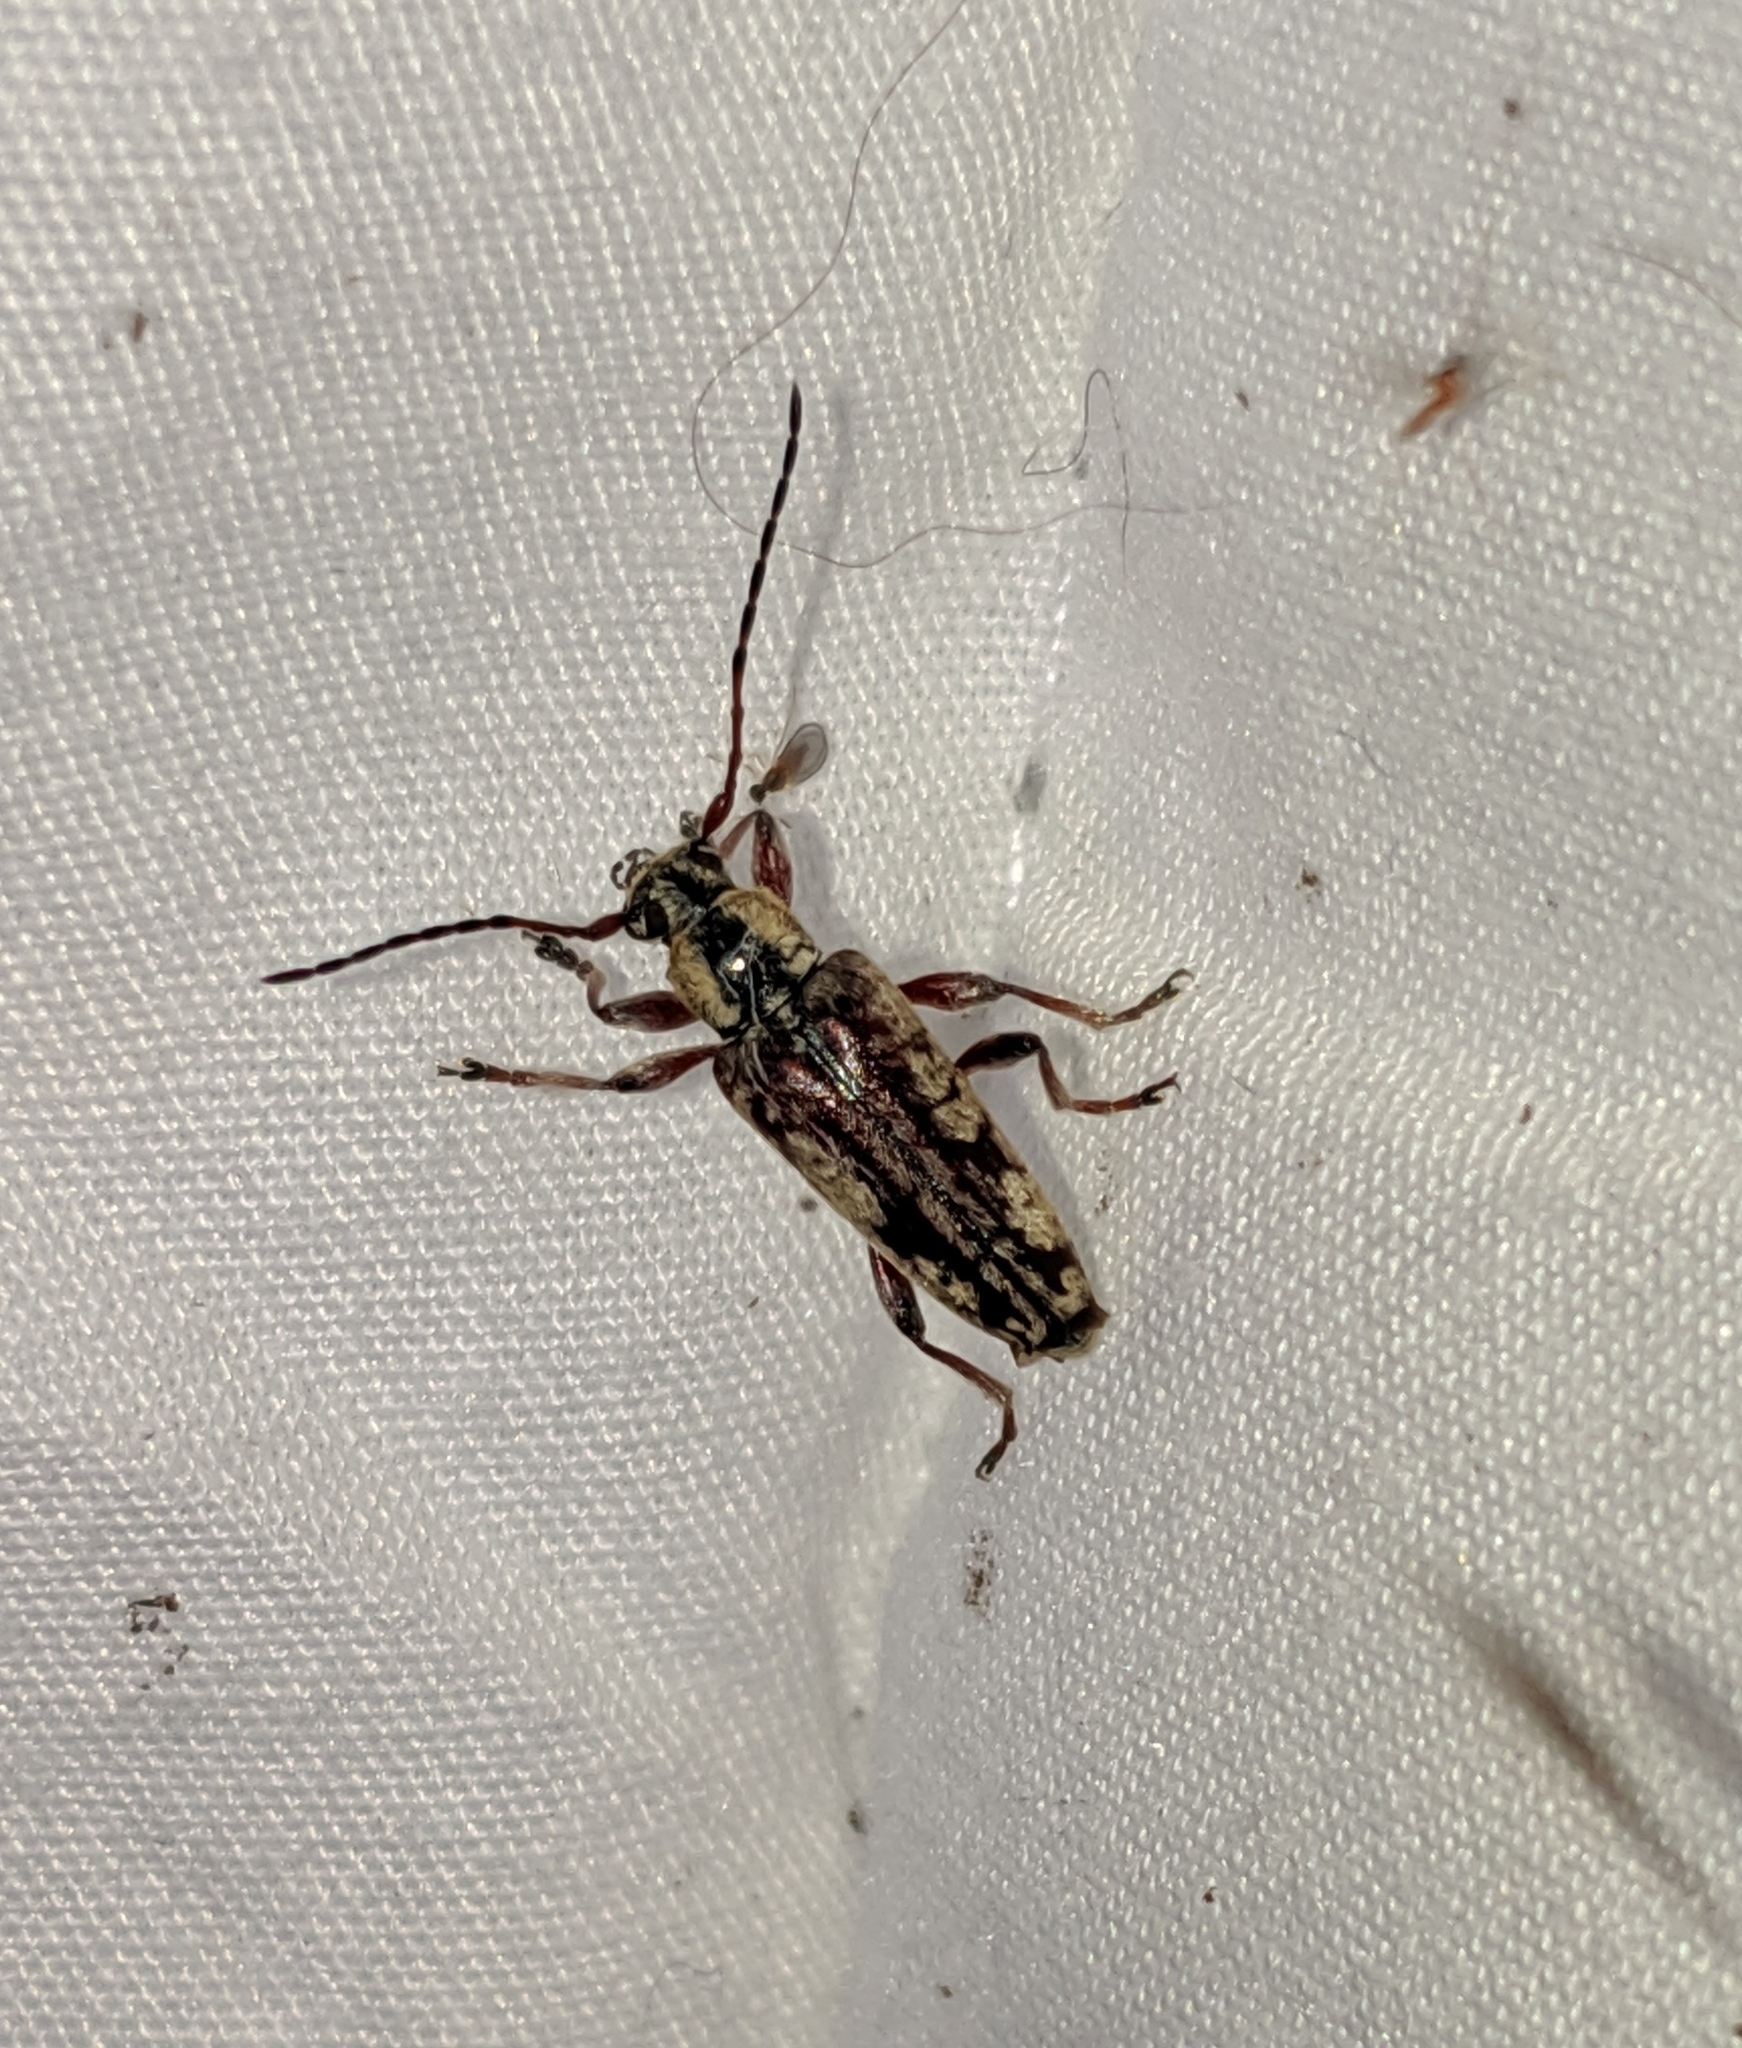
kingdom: Animalia
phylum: Arthropoda
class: Insecta
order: Coleoptera
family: Cerambycidae
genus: Atimia
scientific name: Atimia confusa
